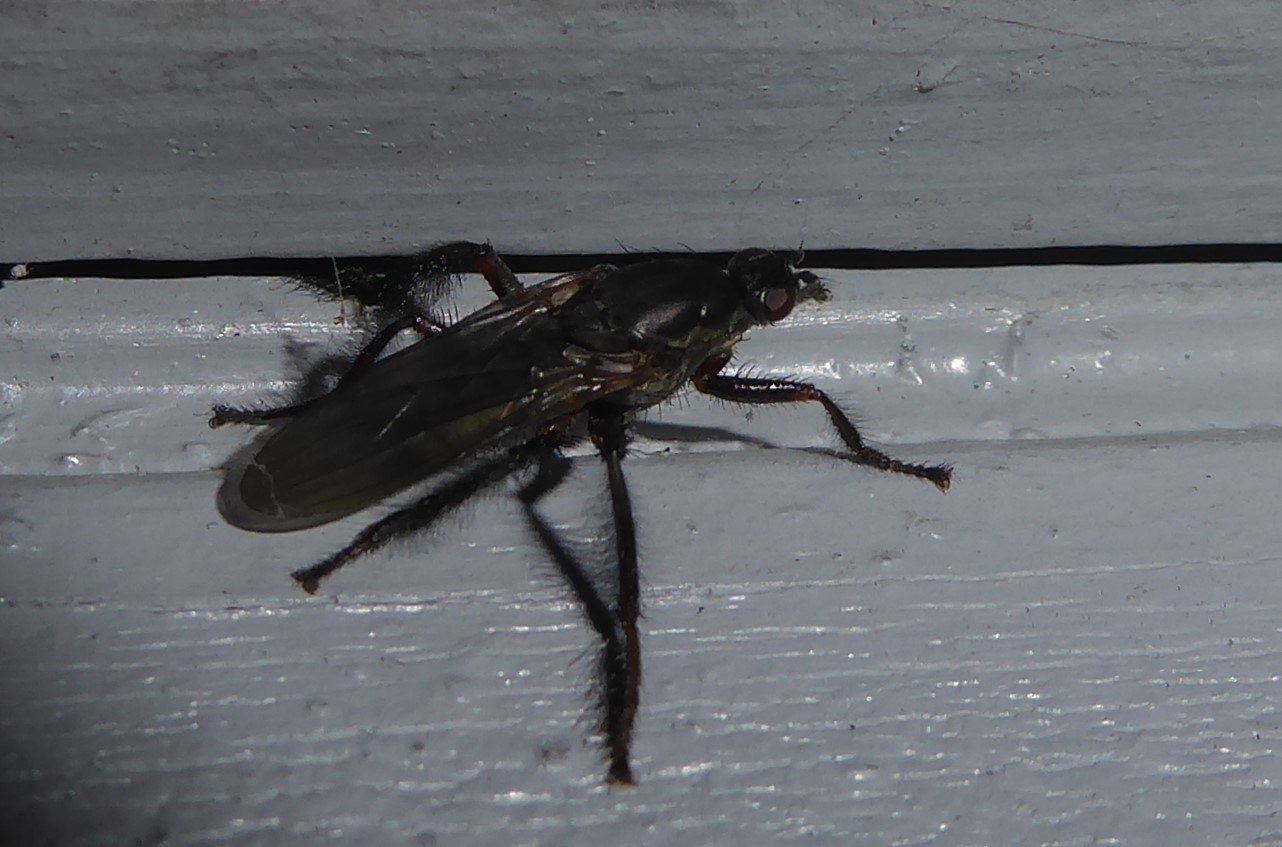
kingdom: Animalia
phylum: Arthropoda
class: Insecta
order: Diptera
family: Coelopidae
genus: Chaetocoelopa
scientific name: Chaetocoelopa littoralis
